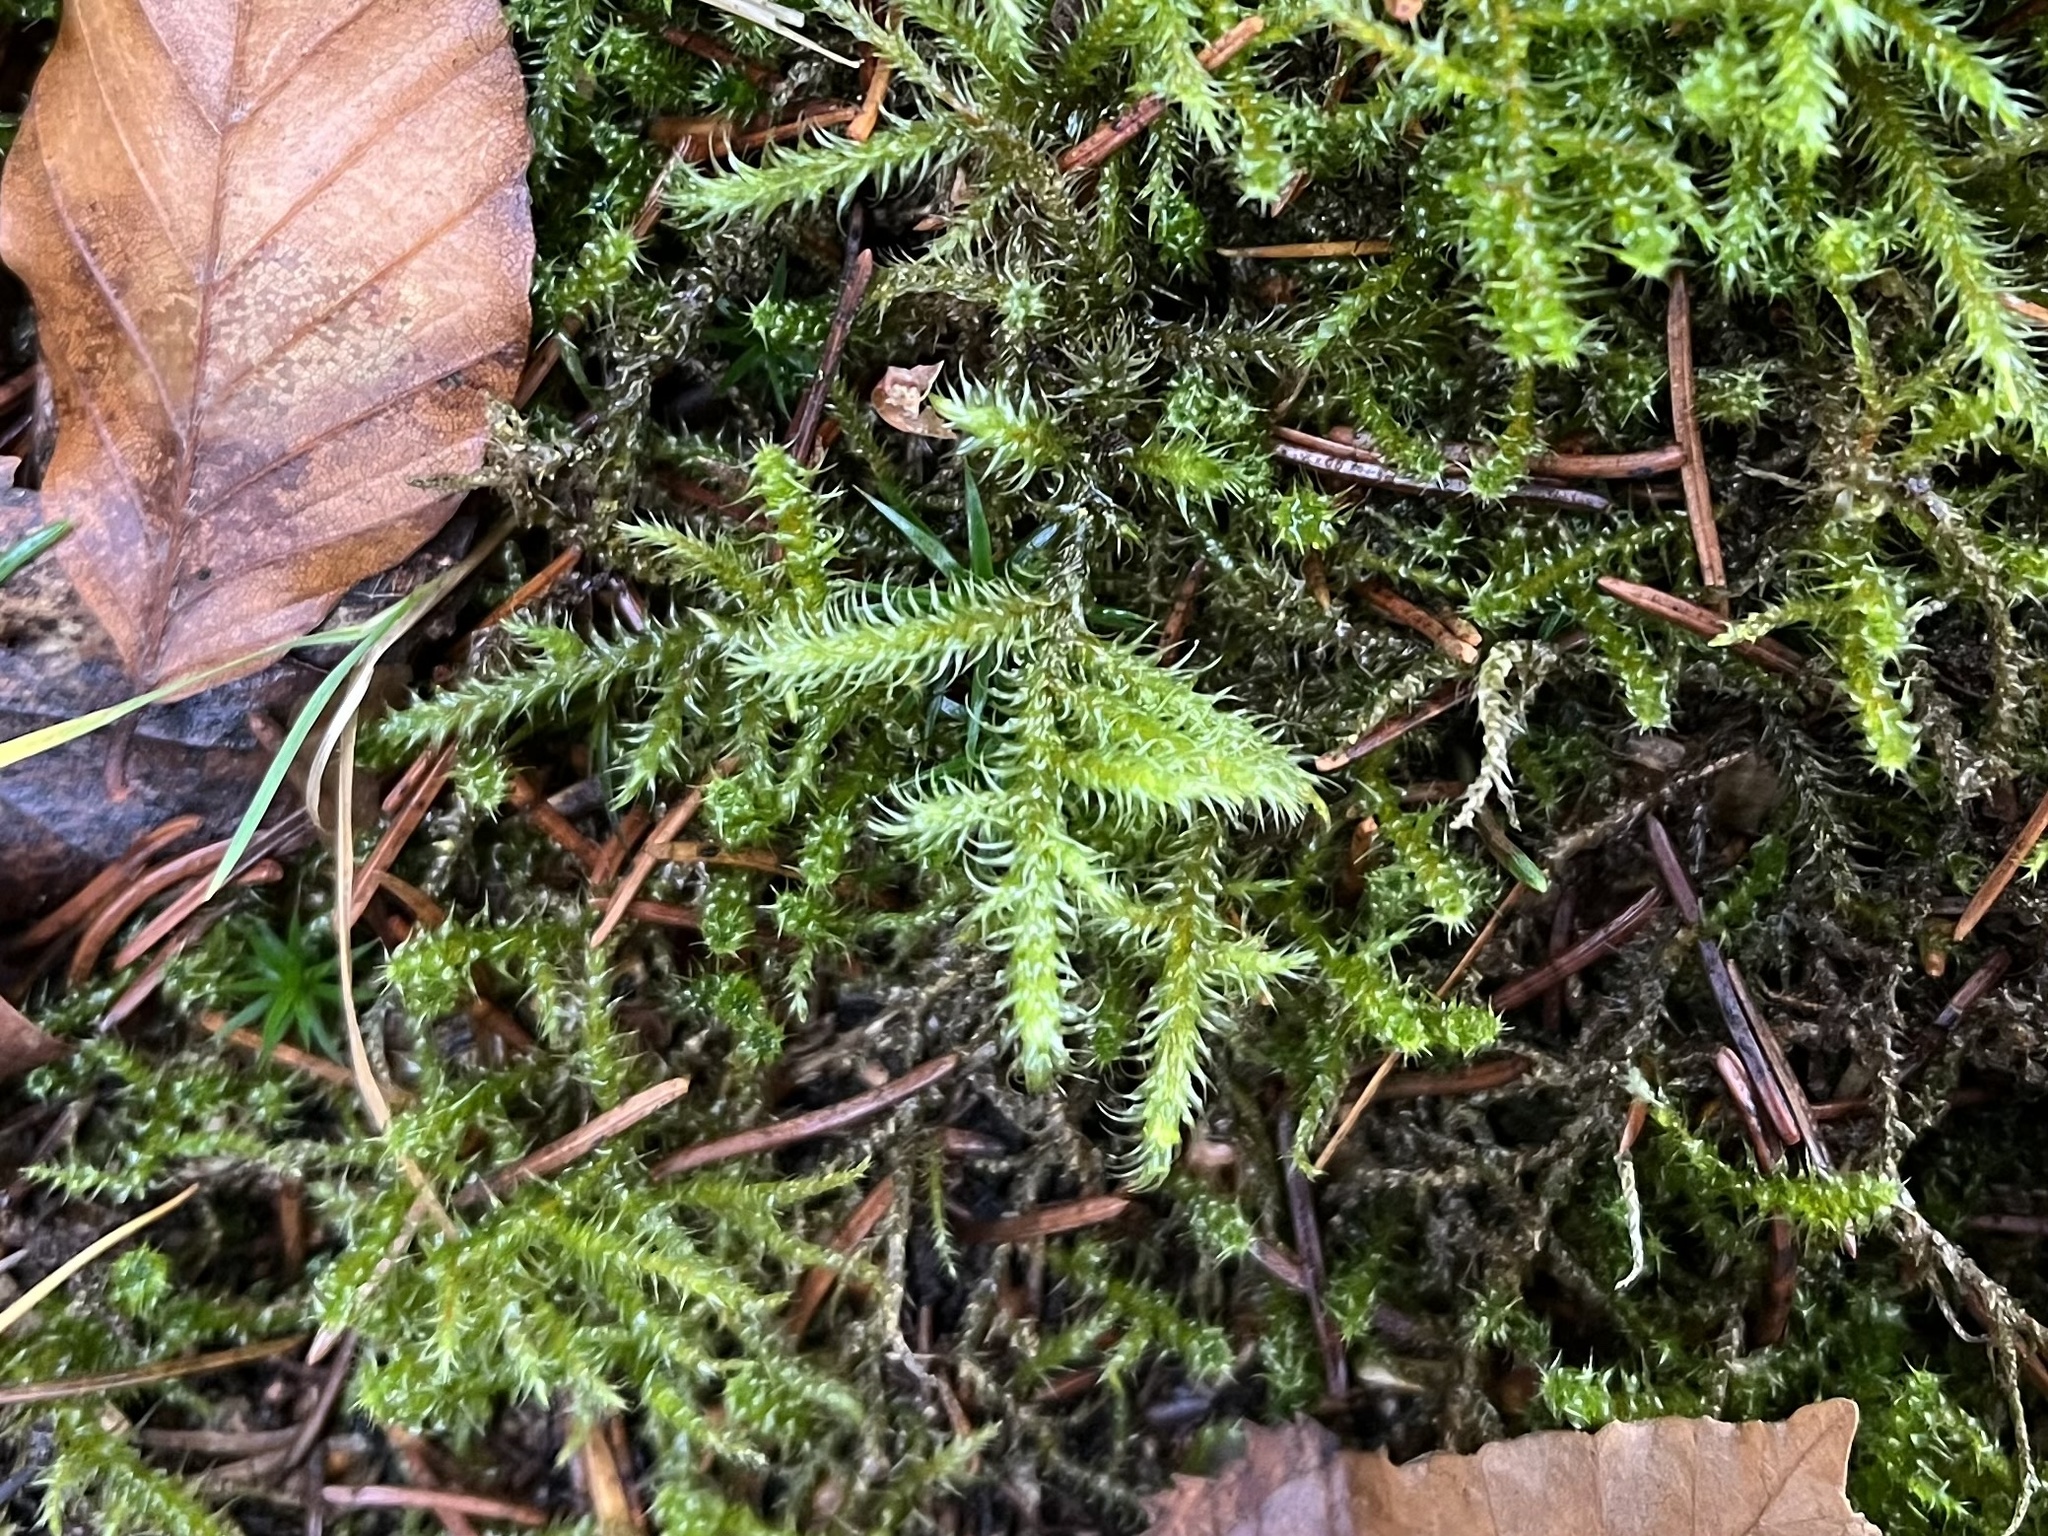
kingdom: Plantae
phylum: Bryophyta
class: Bryopsida
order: Hypnales
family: Hylocomiaceae
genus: Rhytidiadelphus
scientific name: Rhytidiadelphus loreus
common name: Lanky moss
